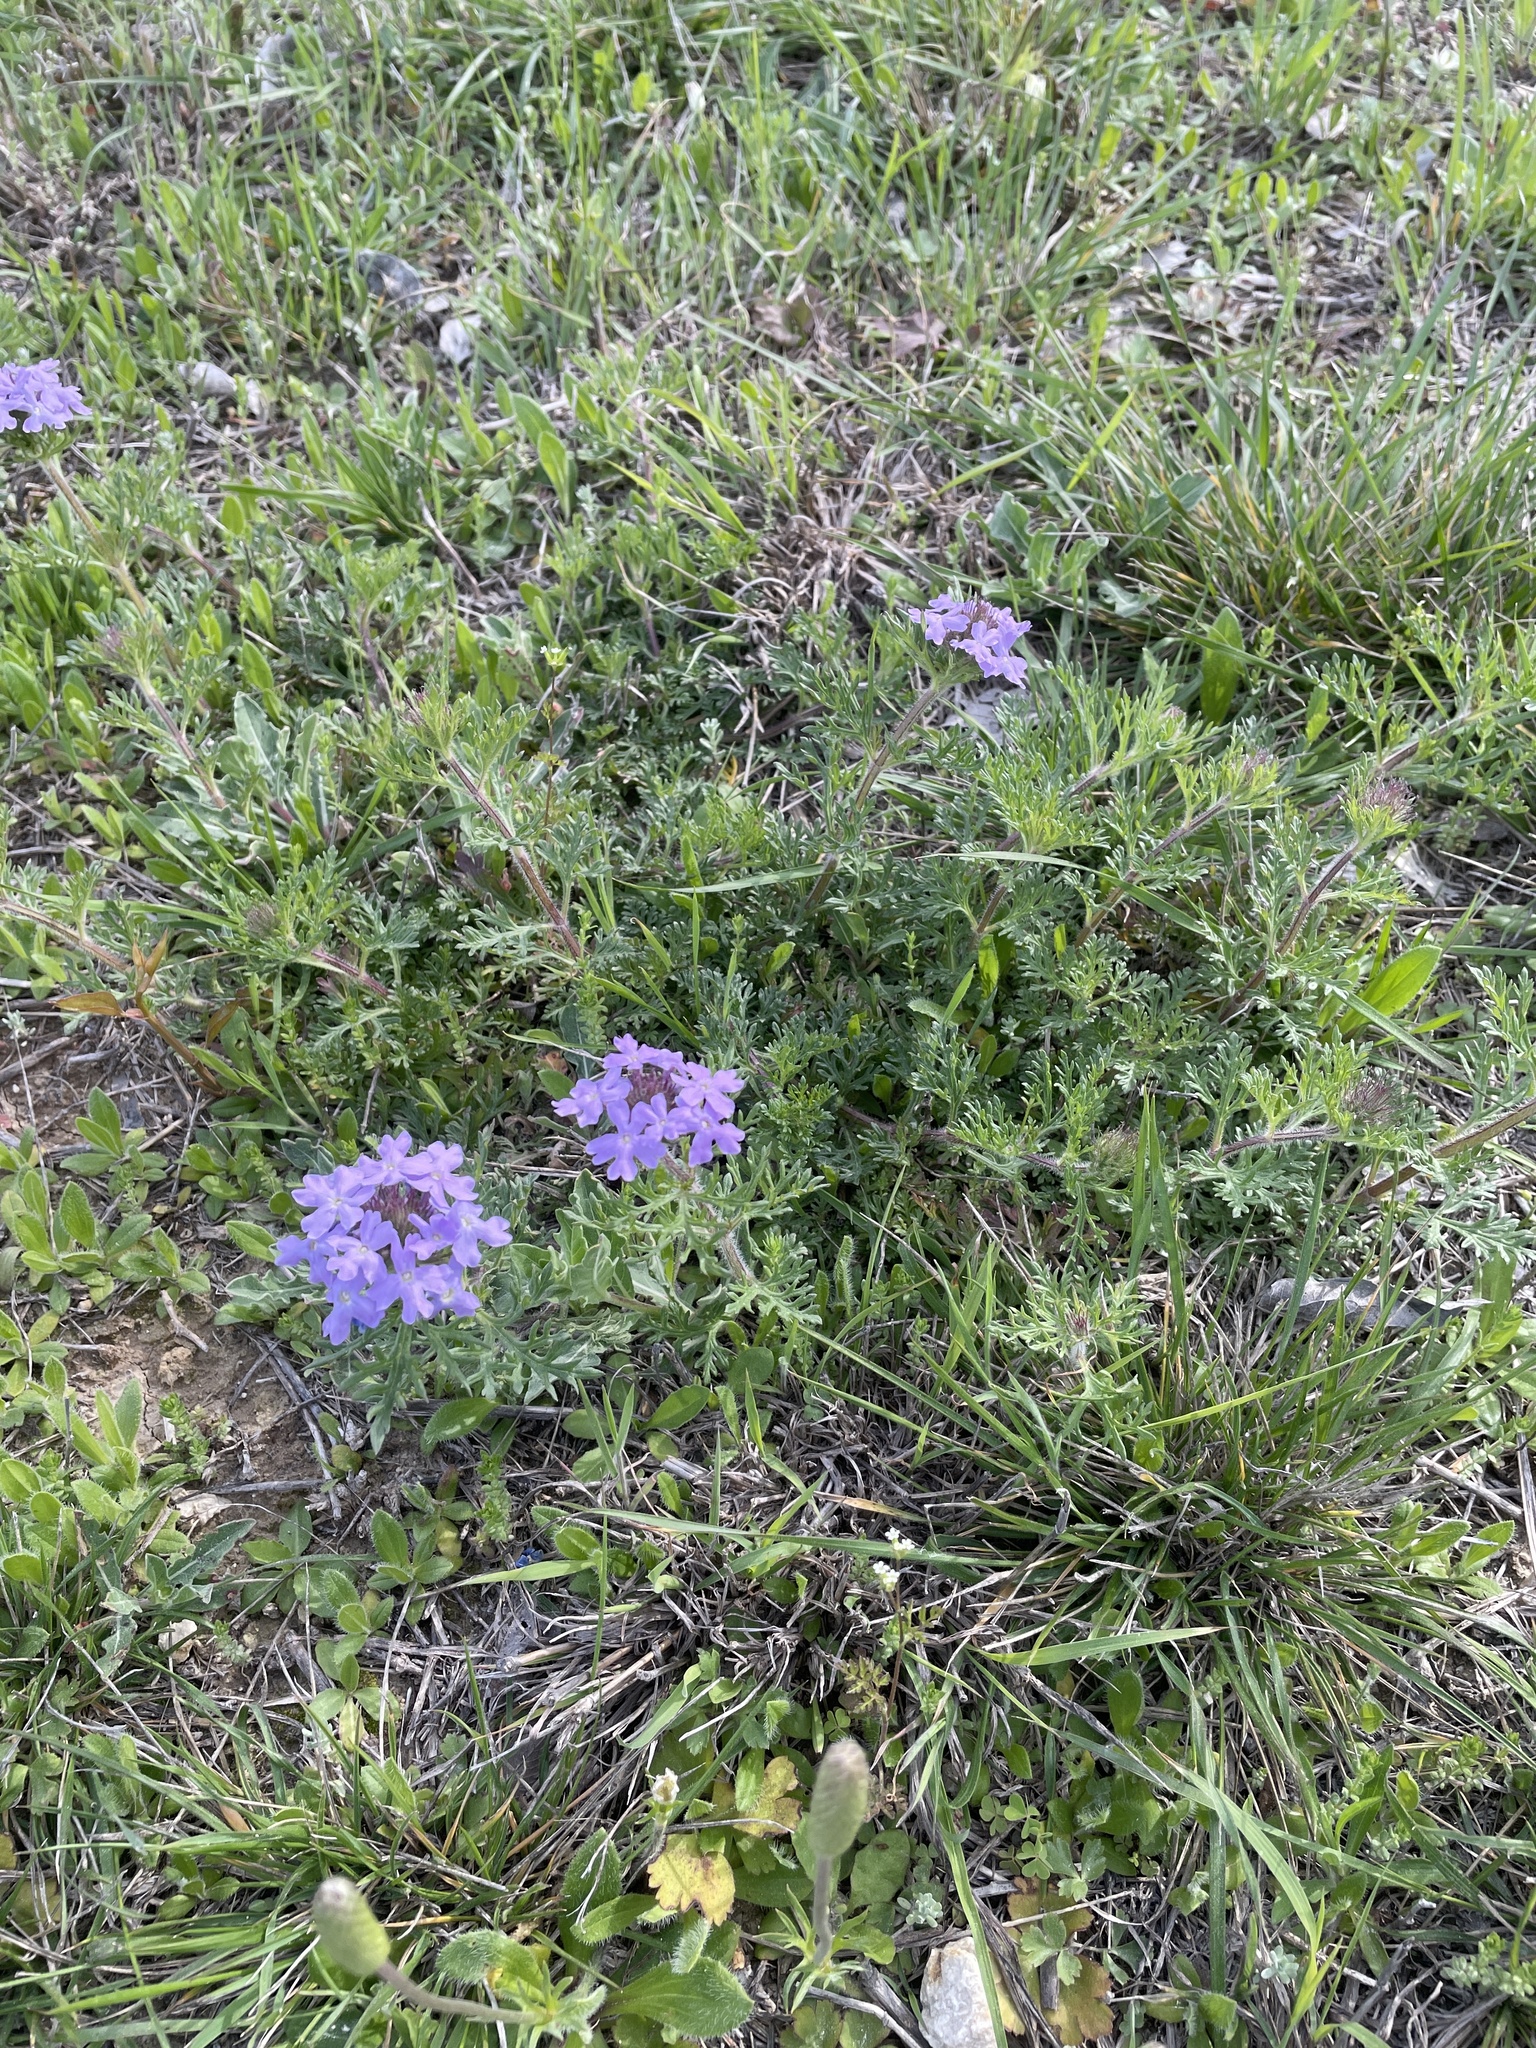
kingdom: Plantae
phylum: Tracheophyta
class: Magnoliopsida
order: Lamiales
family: Verbenaceae
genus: Verbena
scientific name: Verbena bipinnatifida
